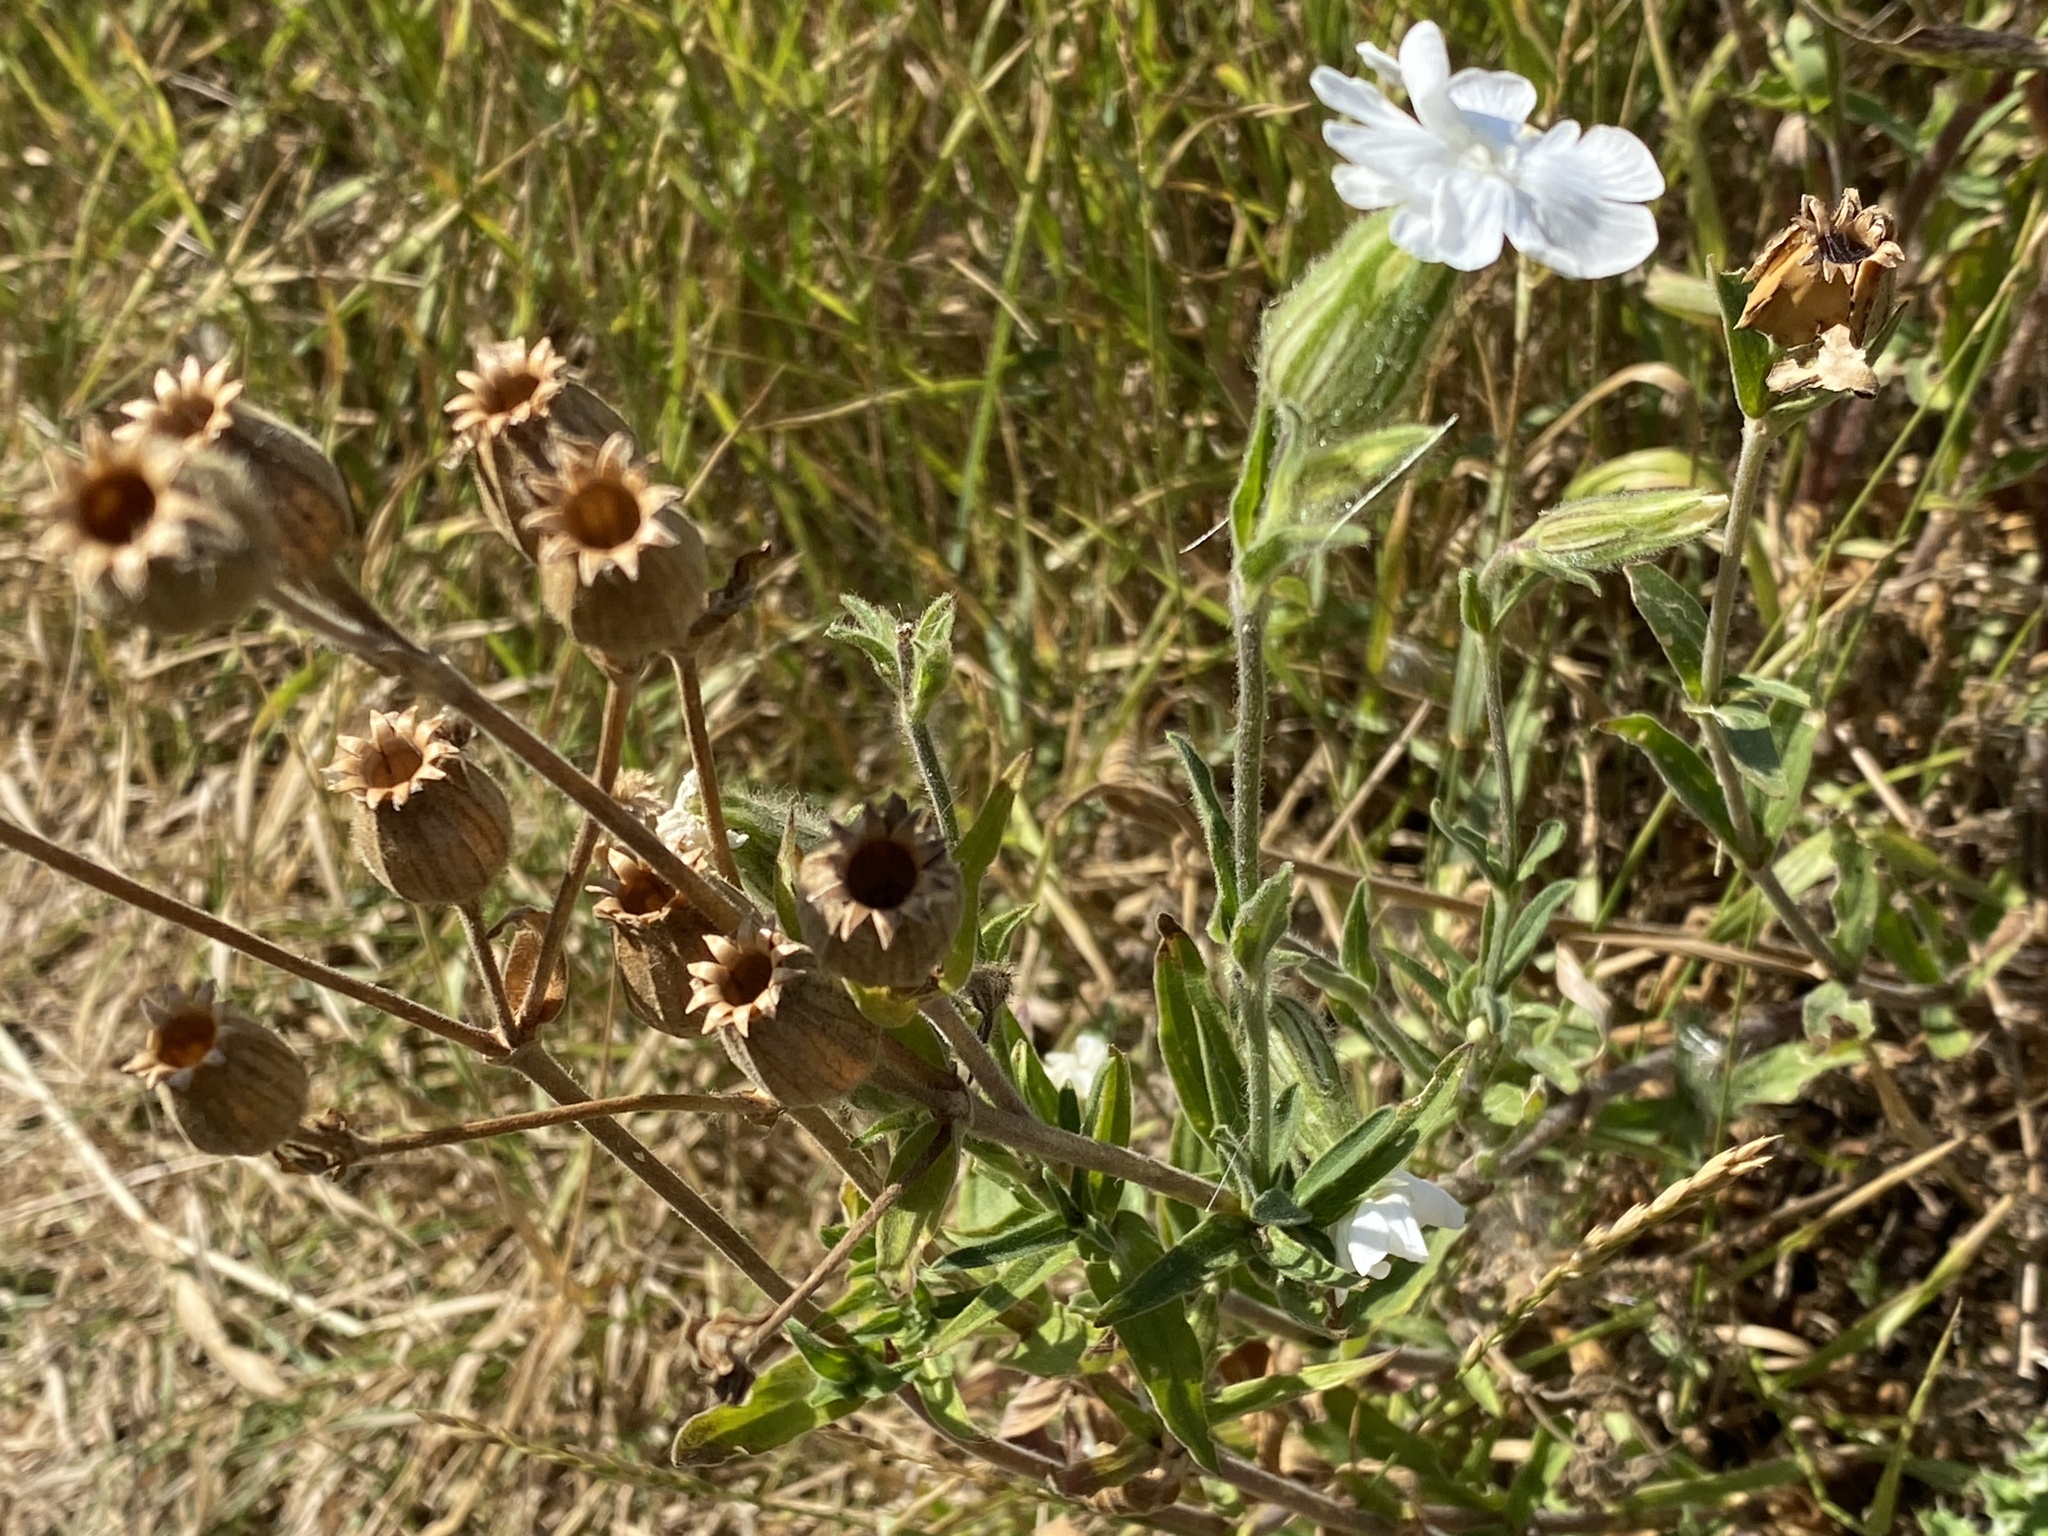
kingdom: Plantae
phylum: Tracheophyta
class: Magnoliopsida
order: Caryophyllales
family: Caryophyllaceae
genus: Silene
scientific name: Silene latifolia
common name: White campion
